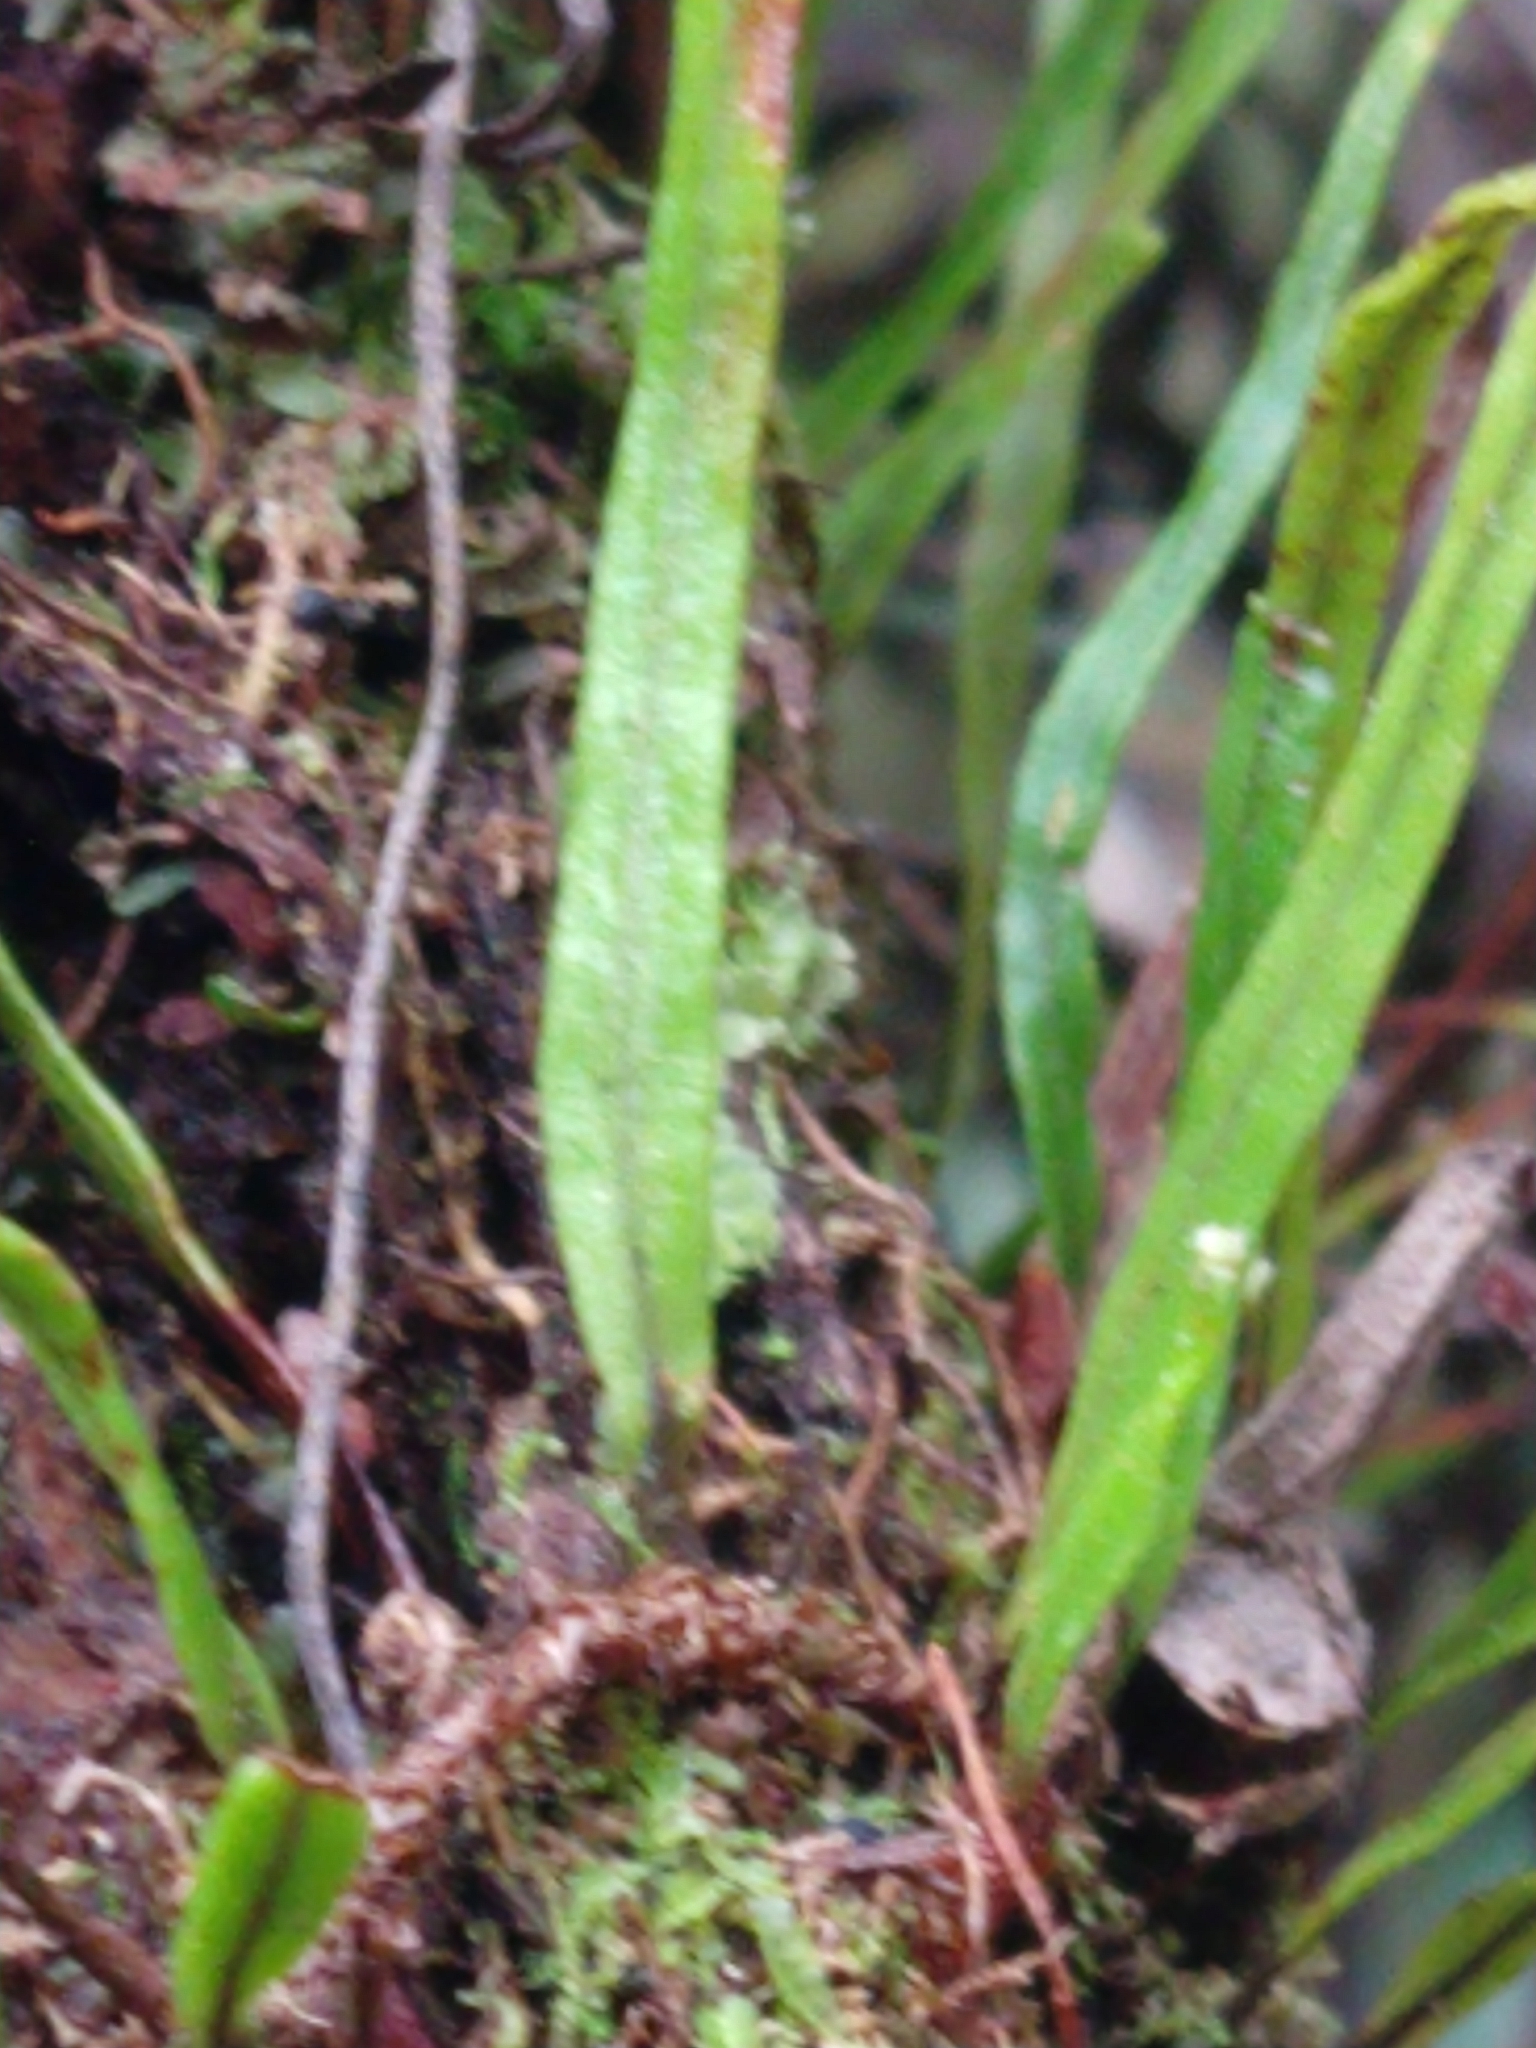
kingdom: Plantae
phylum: Tracheophyta
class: Polypodiopsida
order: Polypodiales
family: Polypodiaceae
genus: Adenophorus
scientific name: Adenophorus tenellus
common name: Kolokolo
